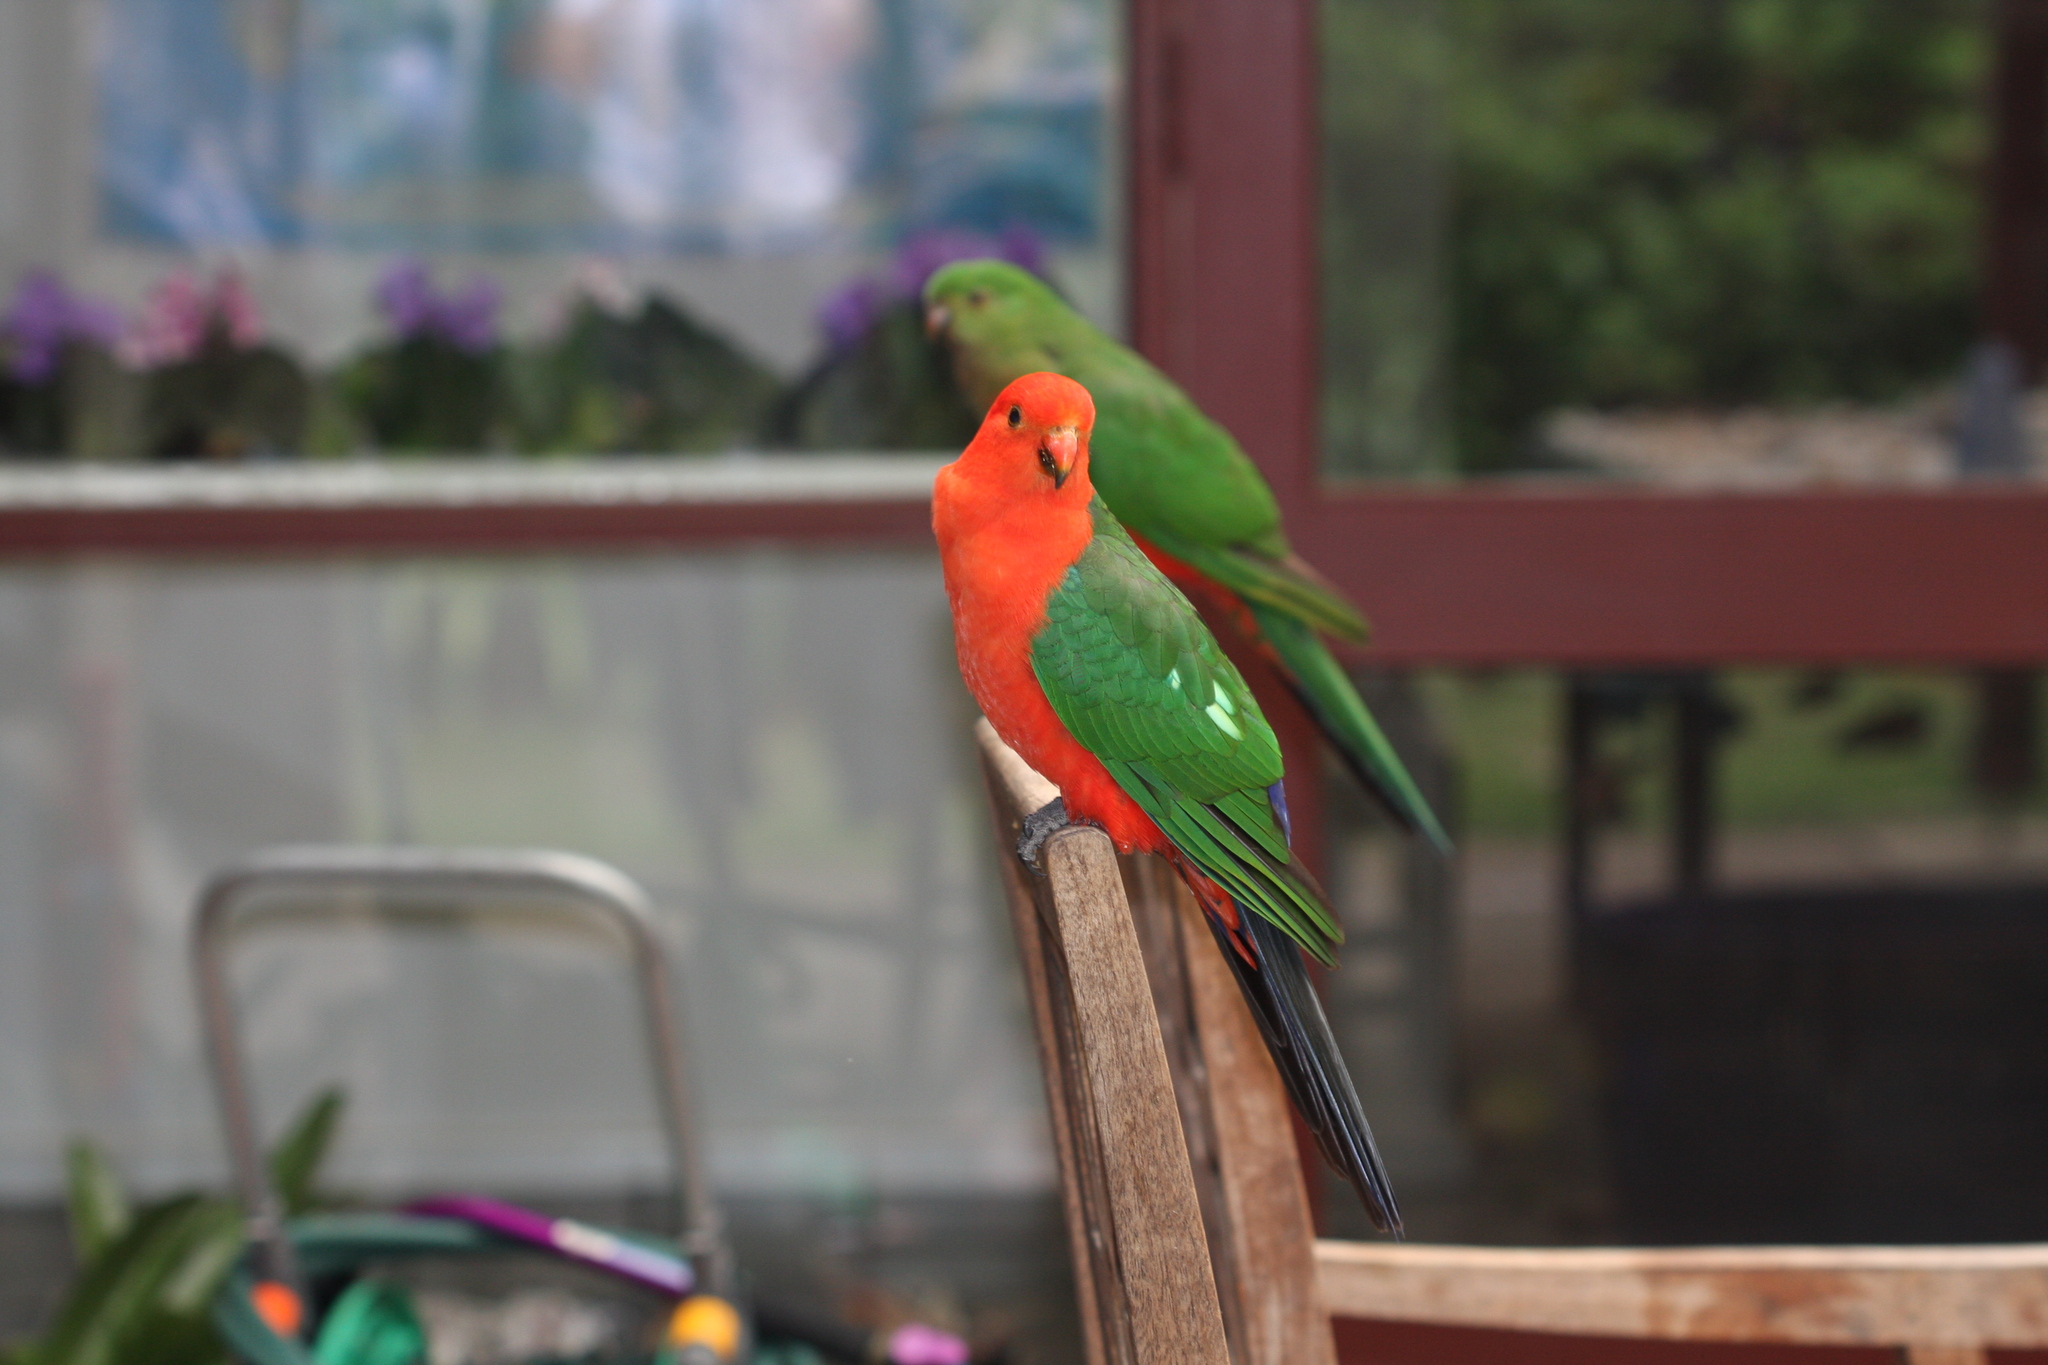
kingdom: Animalia
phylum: Chordata
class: Aves
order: Psittaciformes
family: Psittacidae
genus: Alisterus
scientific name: Alisterus scapularis
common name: Australian king parrot
